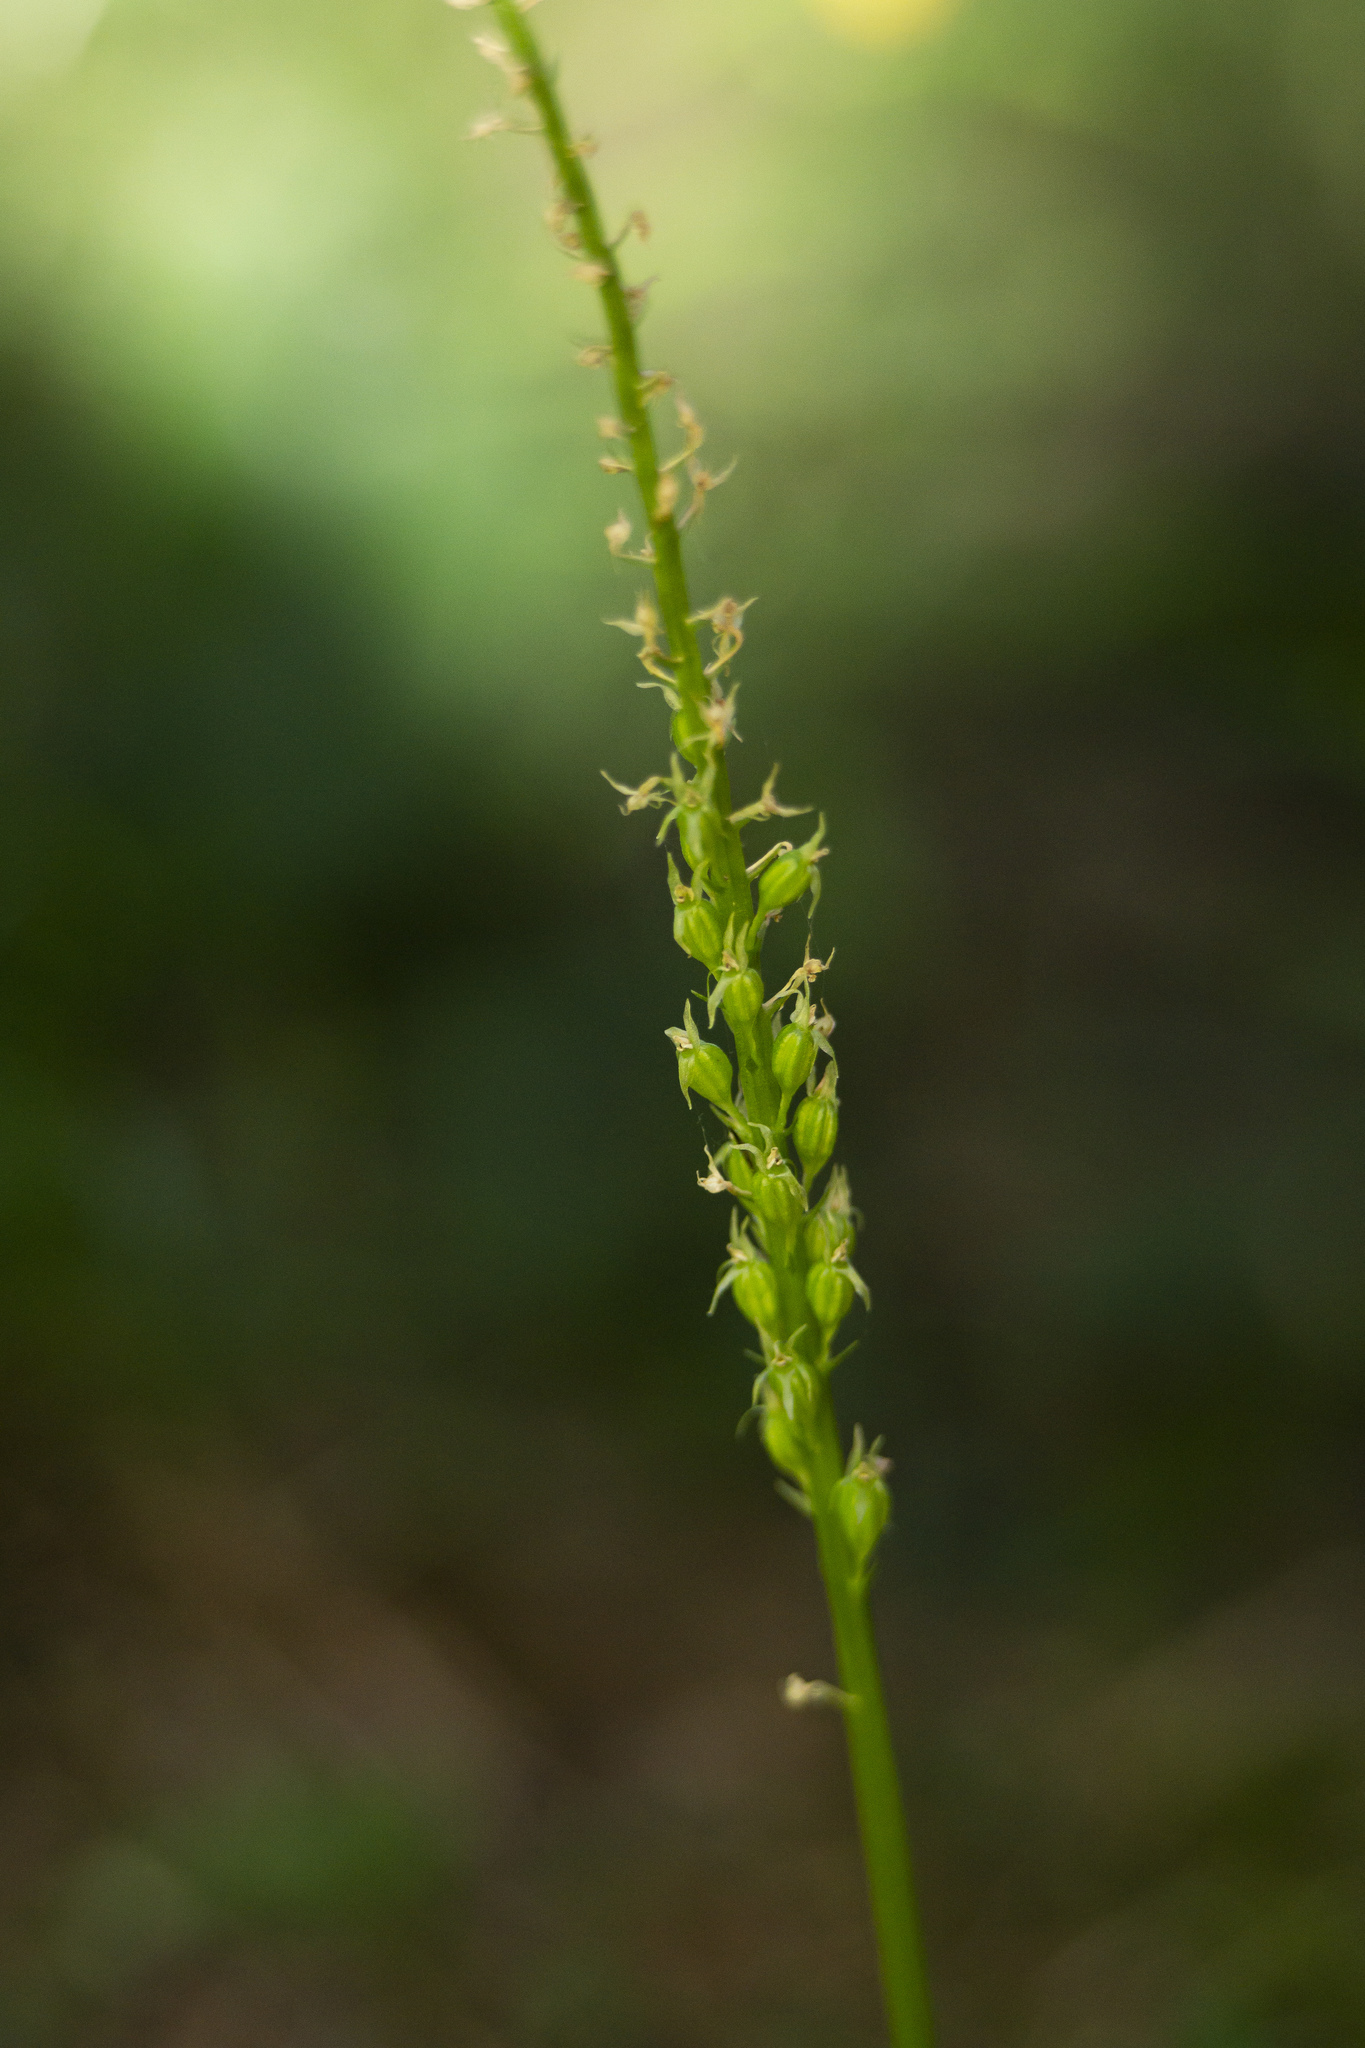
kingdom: Plantae
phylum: Tracheophyta
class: Liliopsida
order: Asparagales
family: Orchidaceae
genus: Malaxis
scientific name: Malaxis monophyllos
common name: White adder's-mouth
